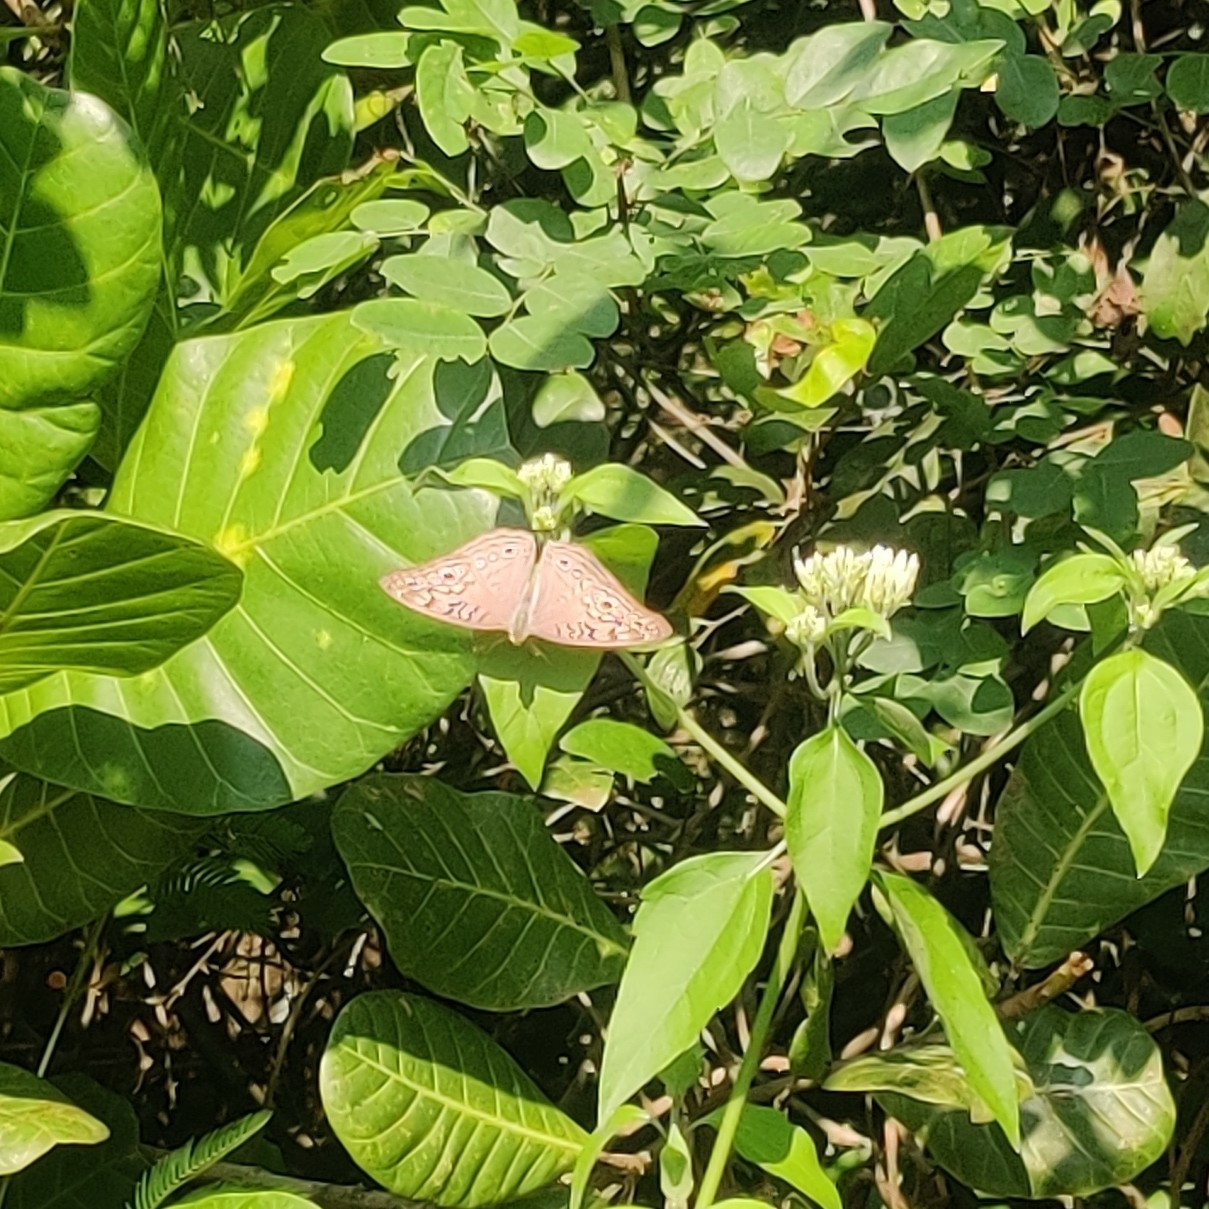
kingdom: Animalia
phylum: Arthropoda
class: Insecta
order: Lepidoptera
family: Nymphalidae
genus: Junonia
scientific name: Junonia atlites
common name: Grey pansy
